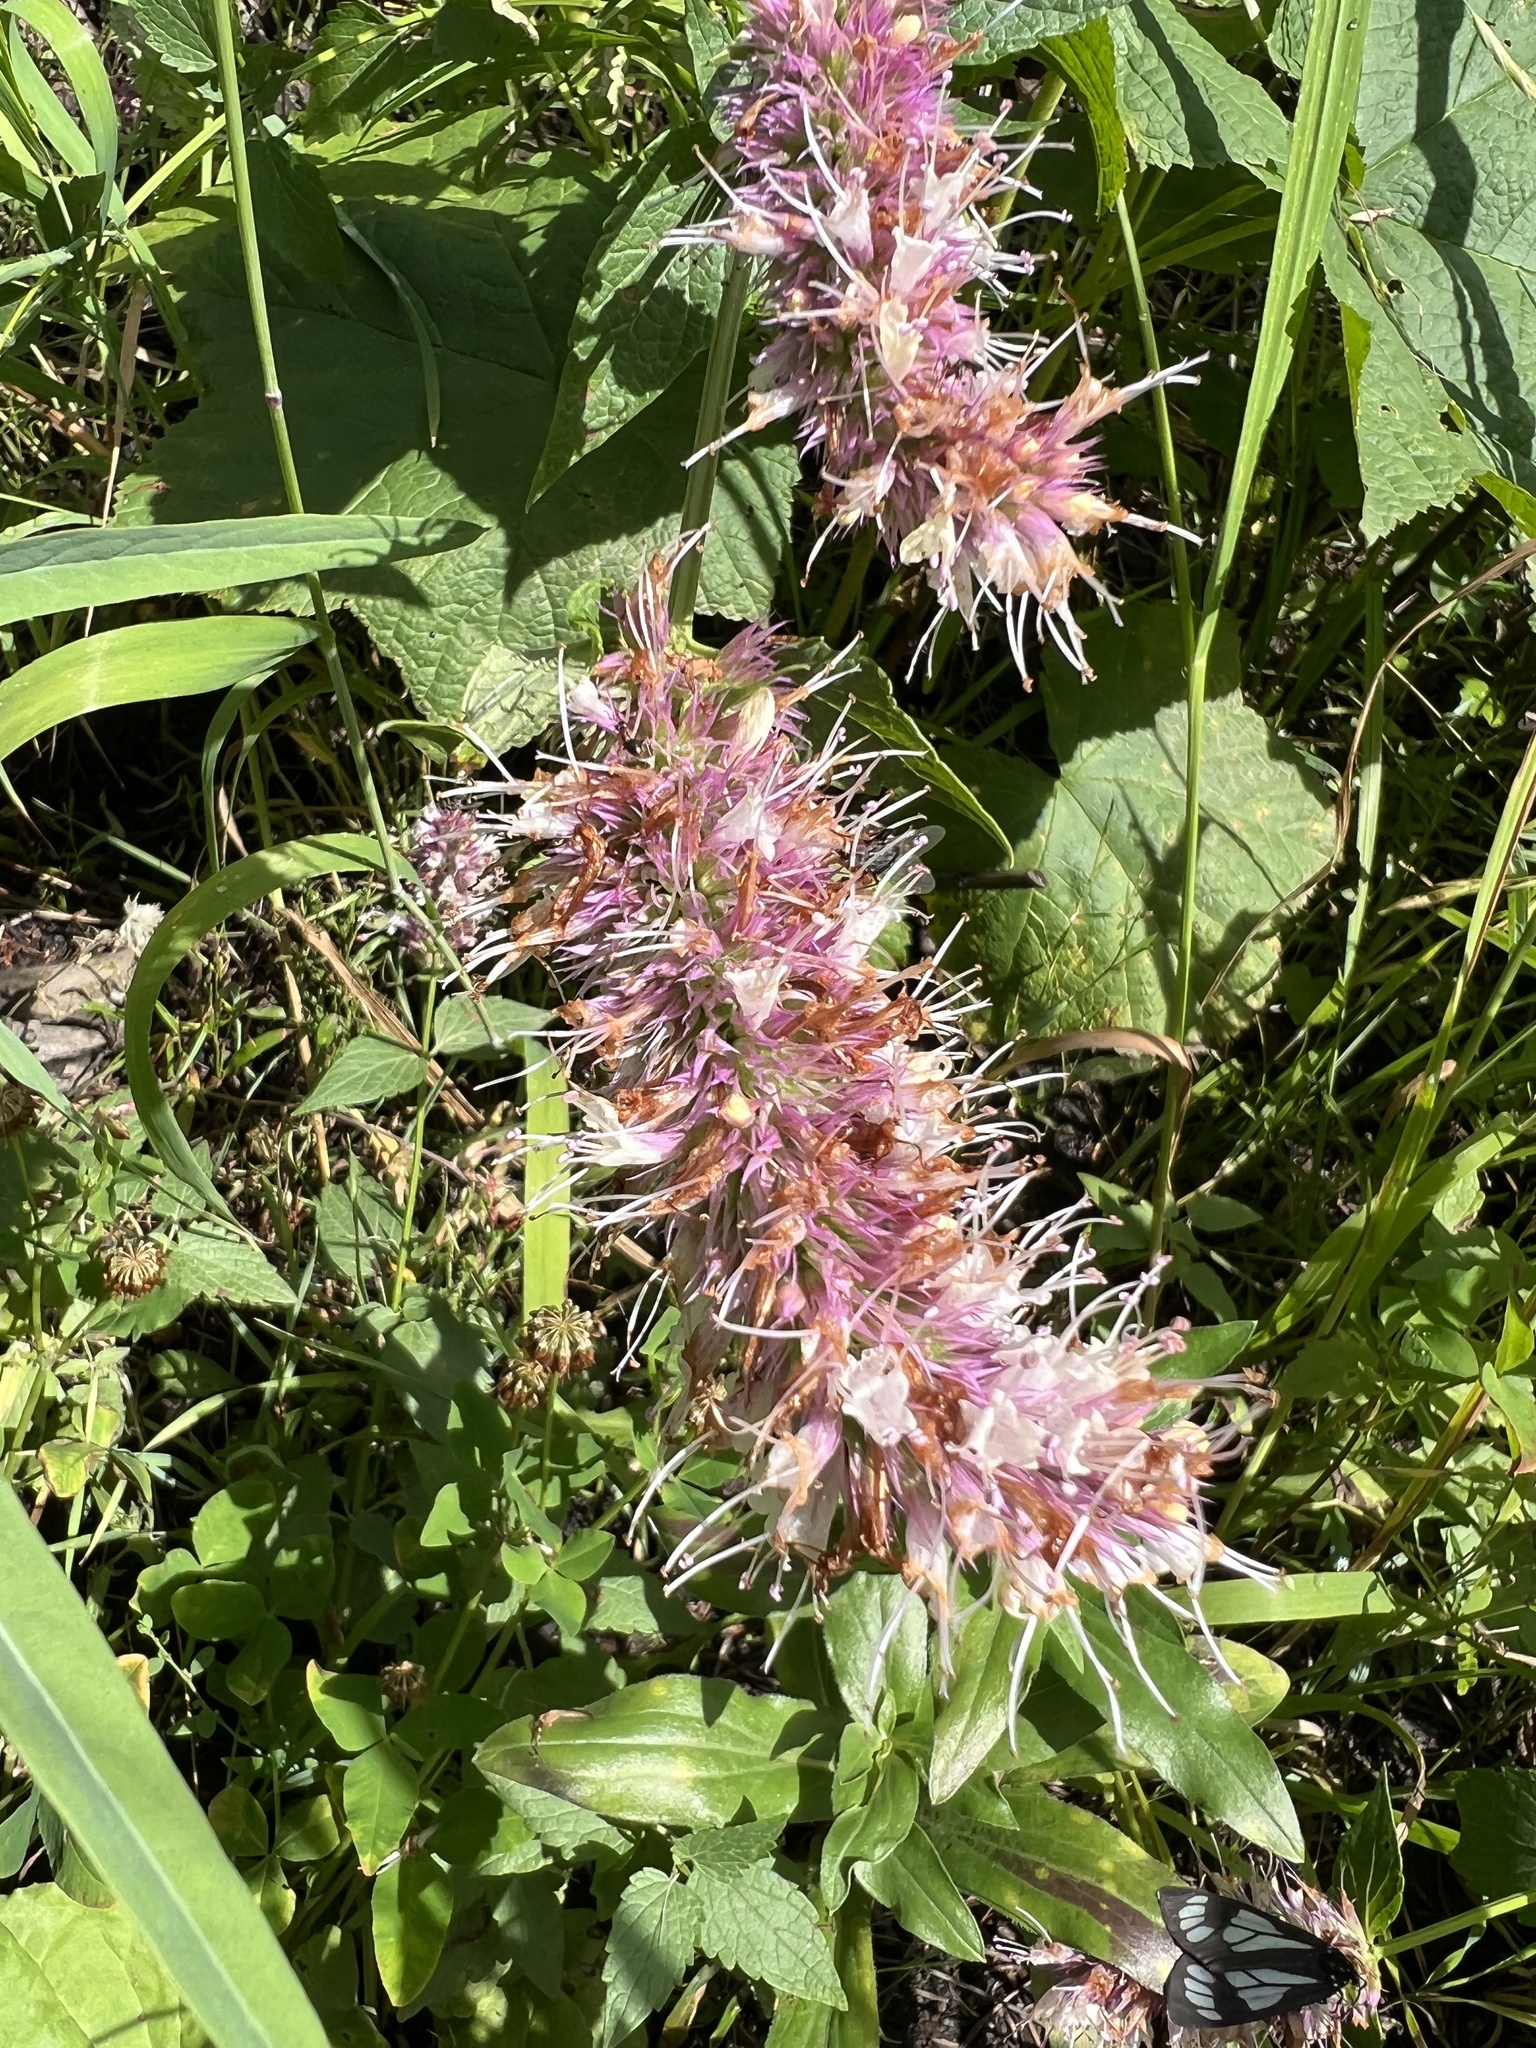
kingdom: Plantae
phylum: Tracheophyta
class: Magnoliopsida
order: Lamiales
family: Lamiaceae
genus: Agastache
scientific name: Agastache urticifolia
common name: Horsemint giant hyssop
